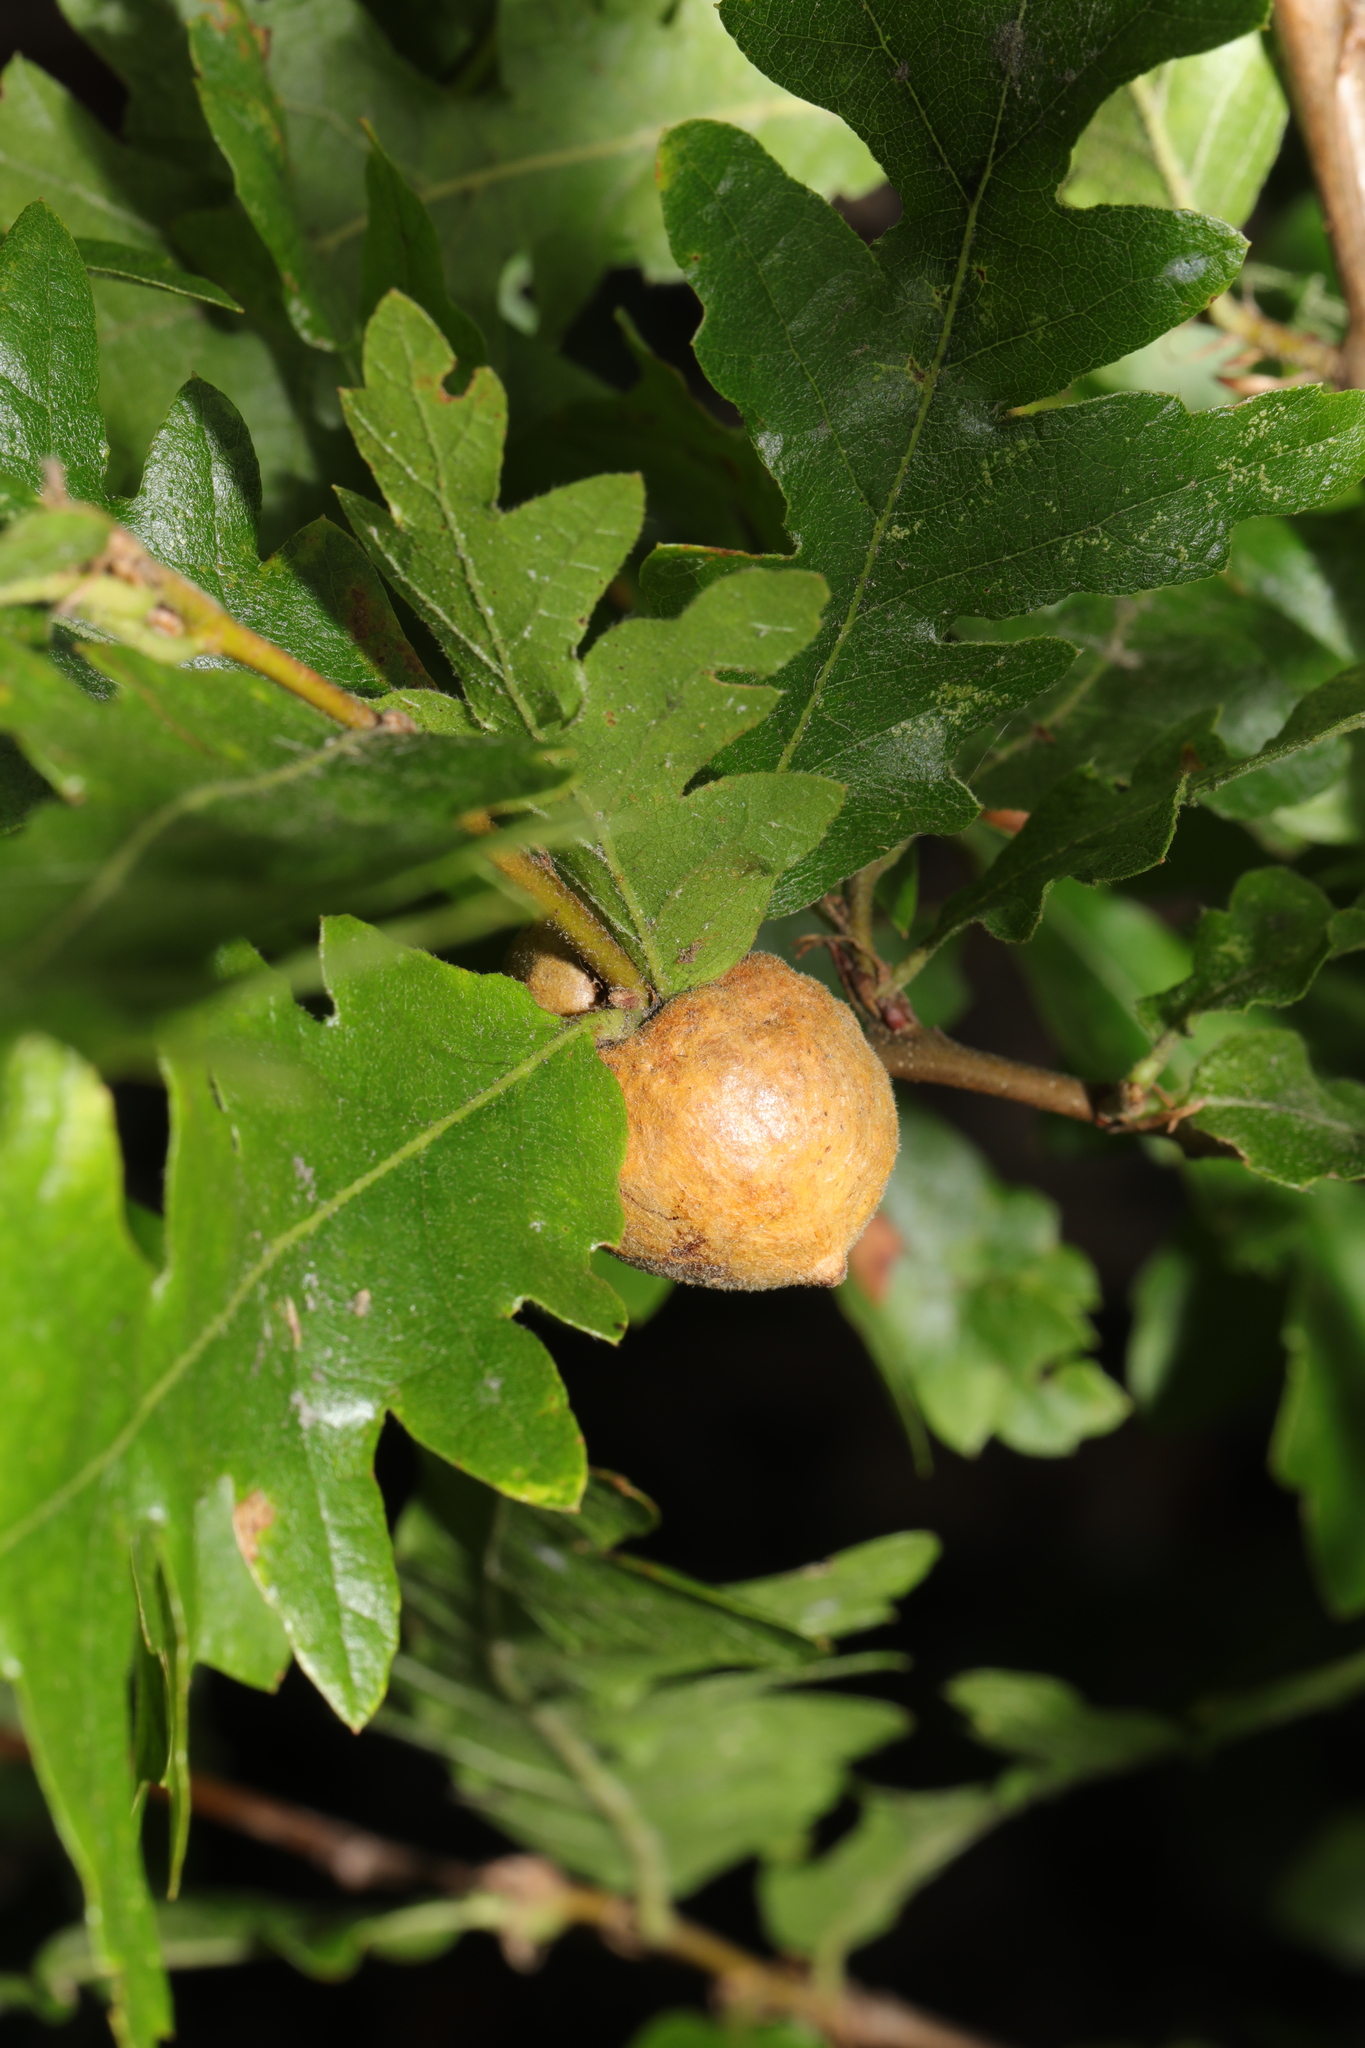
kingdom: Animalia
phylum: Arthropoda
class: Insecta
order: Hymenoptera
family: Cynipidae
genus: Aphelonyx
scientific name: Aphelonyx cerricola
